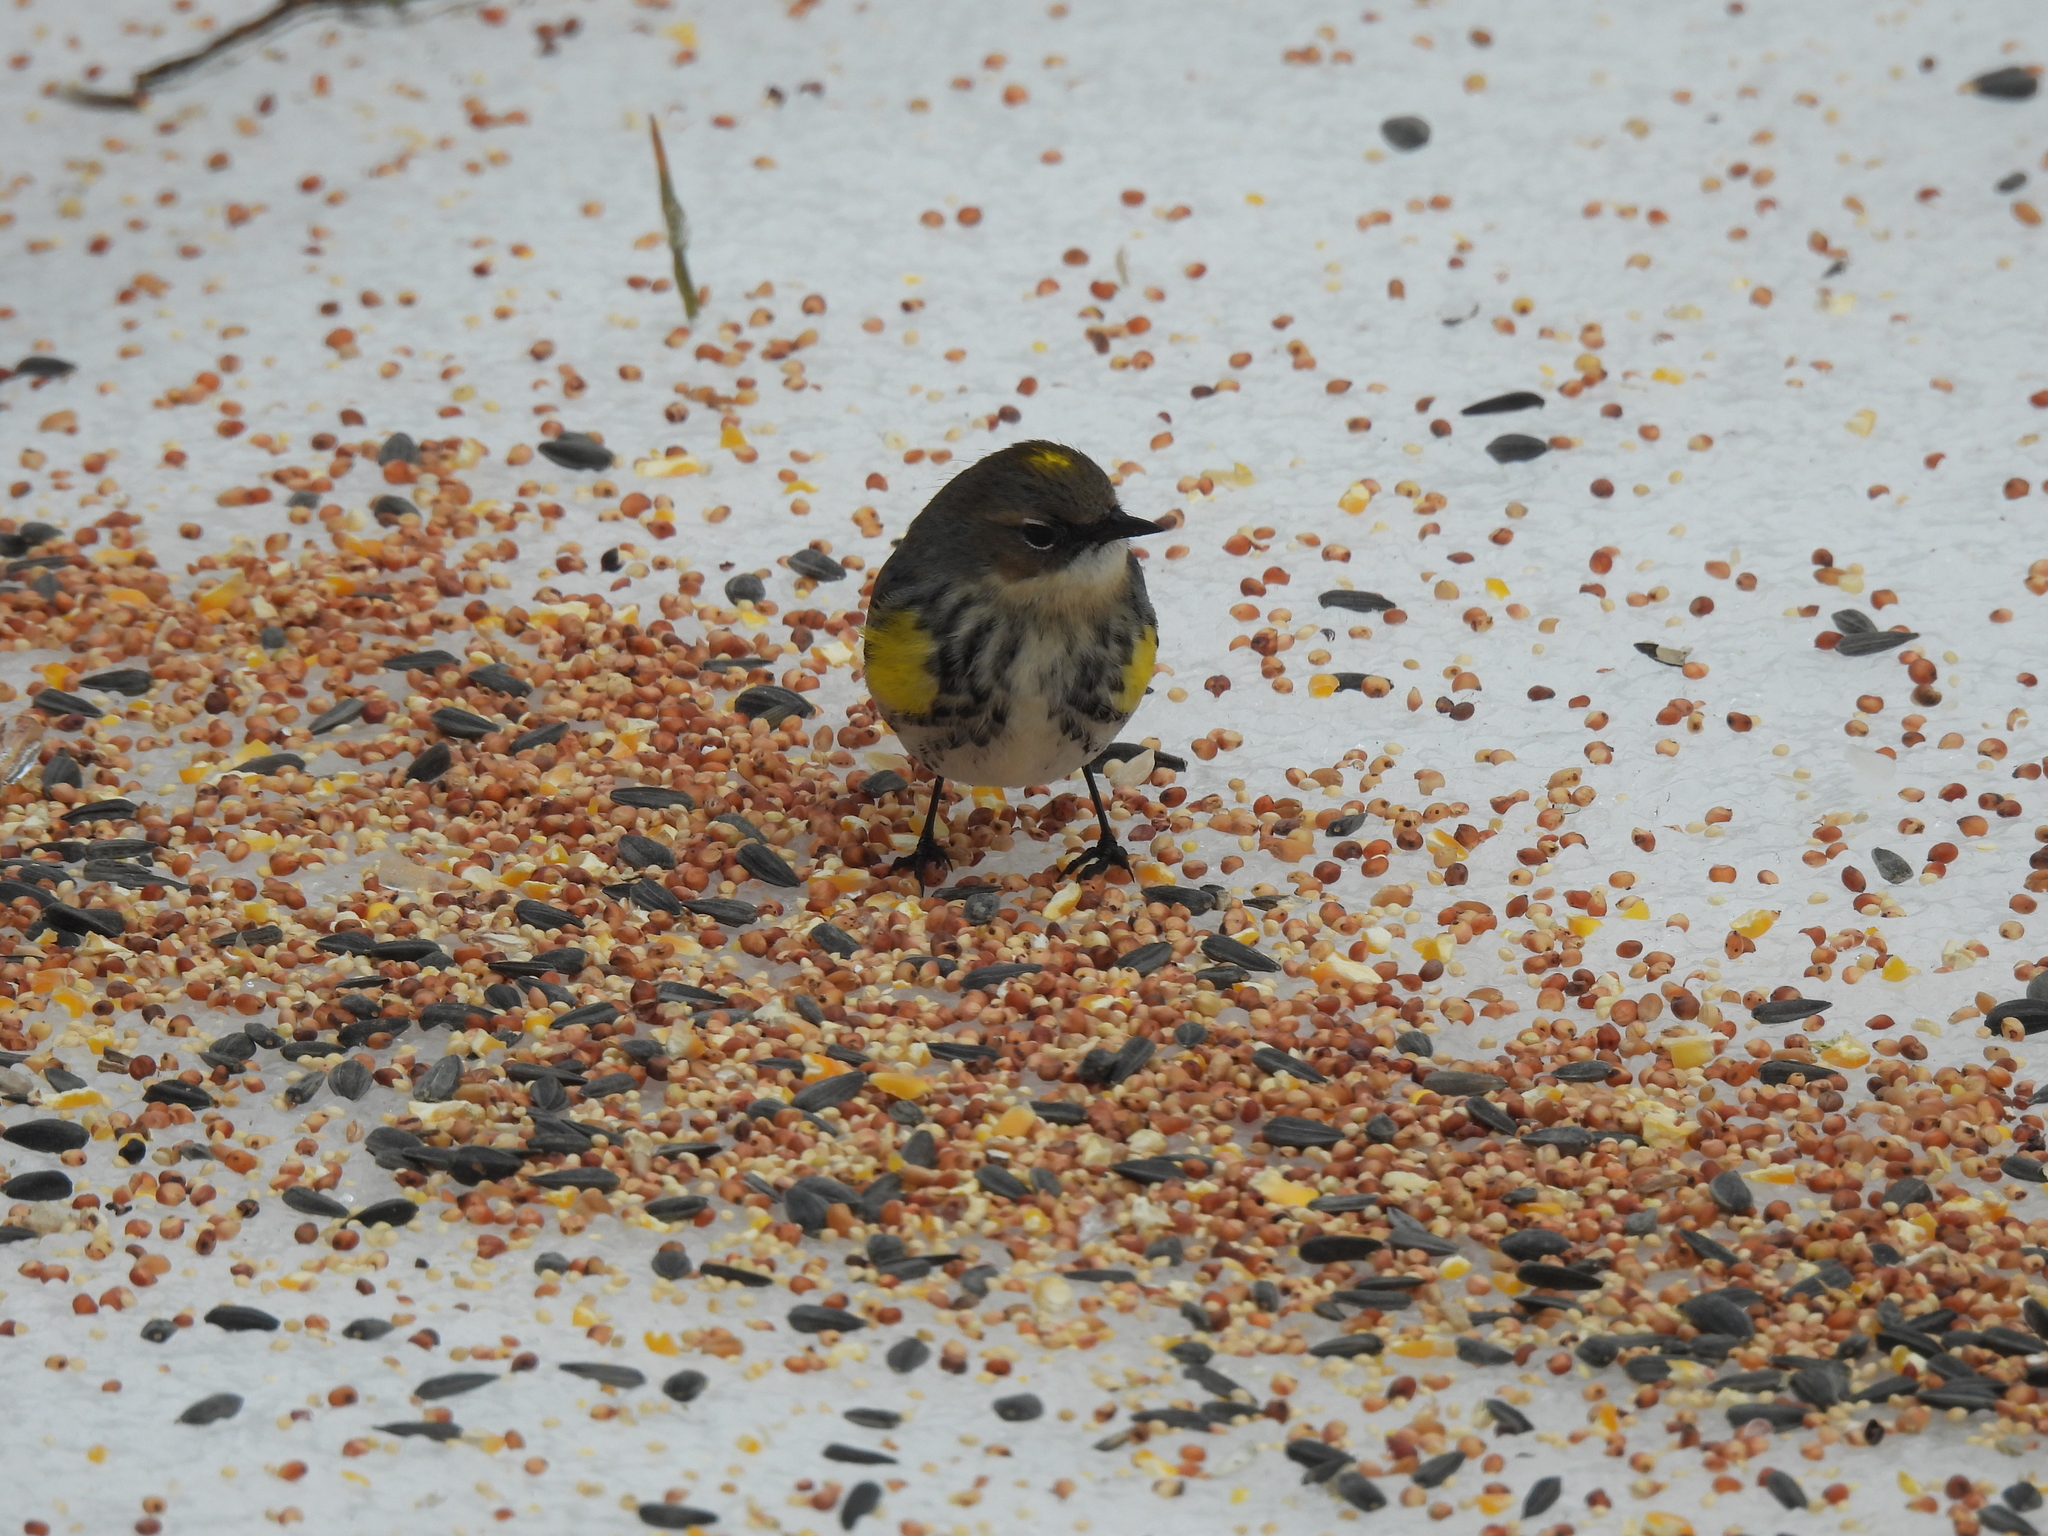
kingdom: Animalia
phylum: Chordata
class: Aves
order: Passeriformes
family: Parulidae
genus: Setophaga
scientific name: Setophaga coronata
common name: Myrtle warbler
